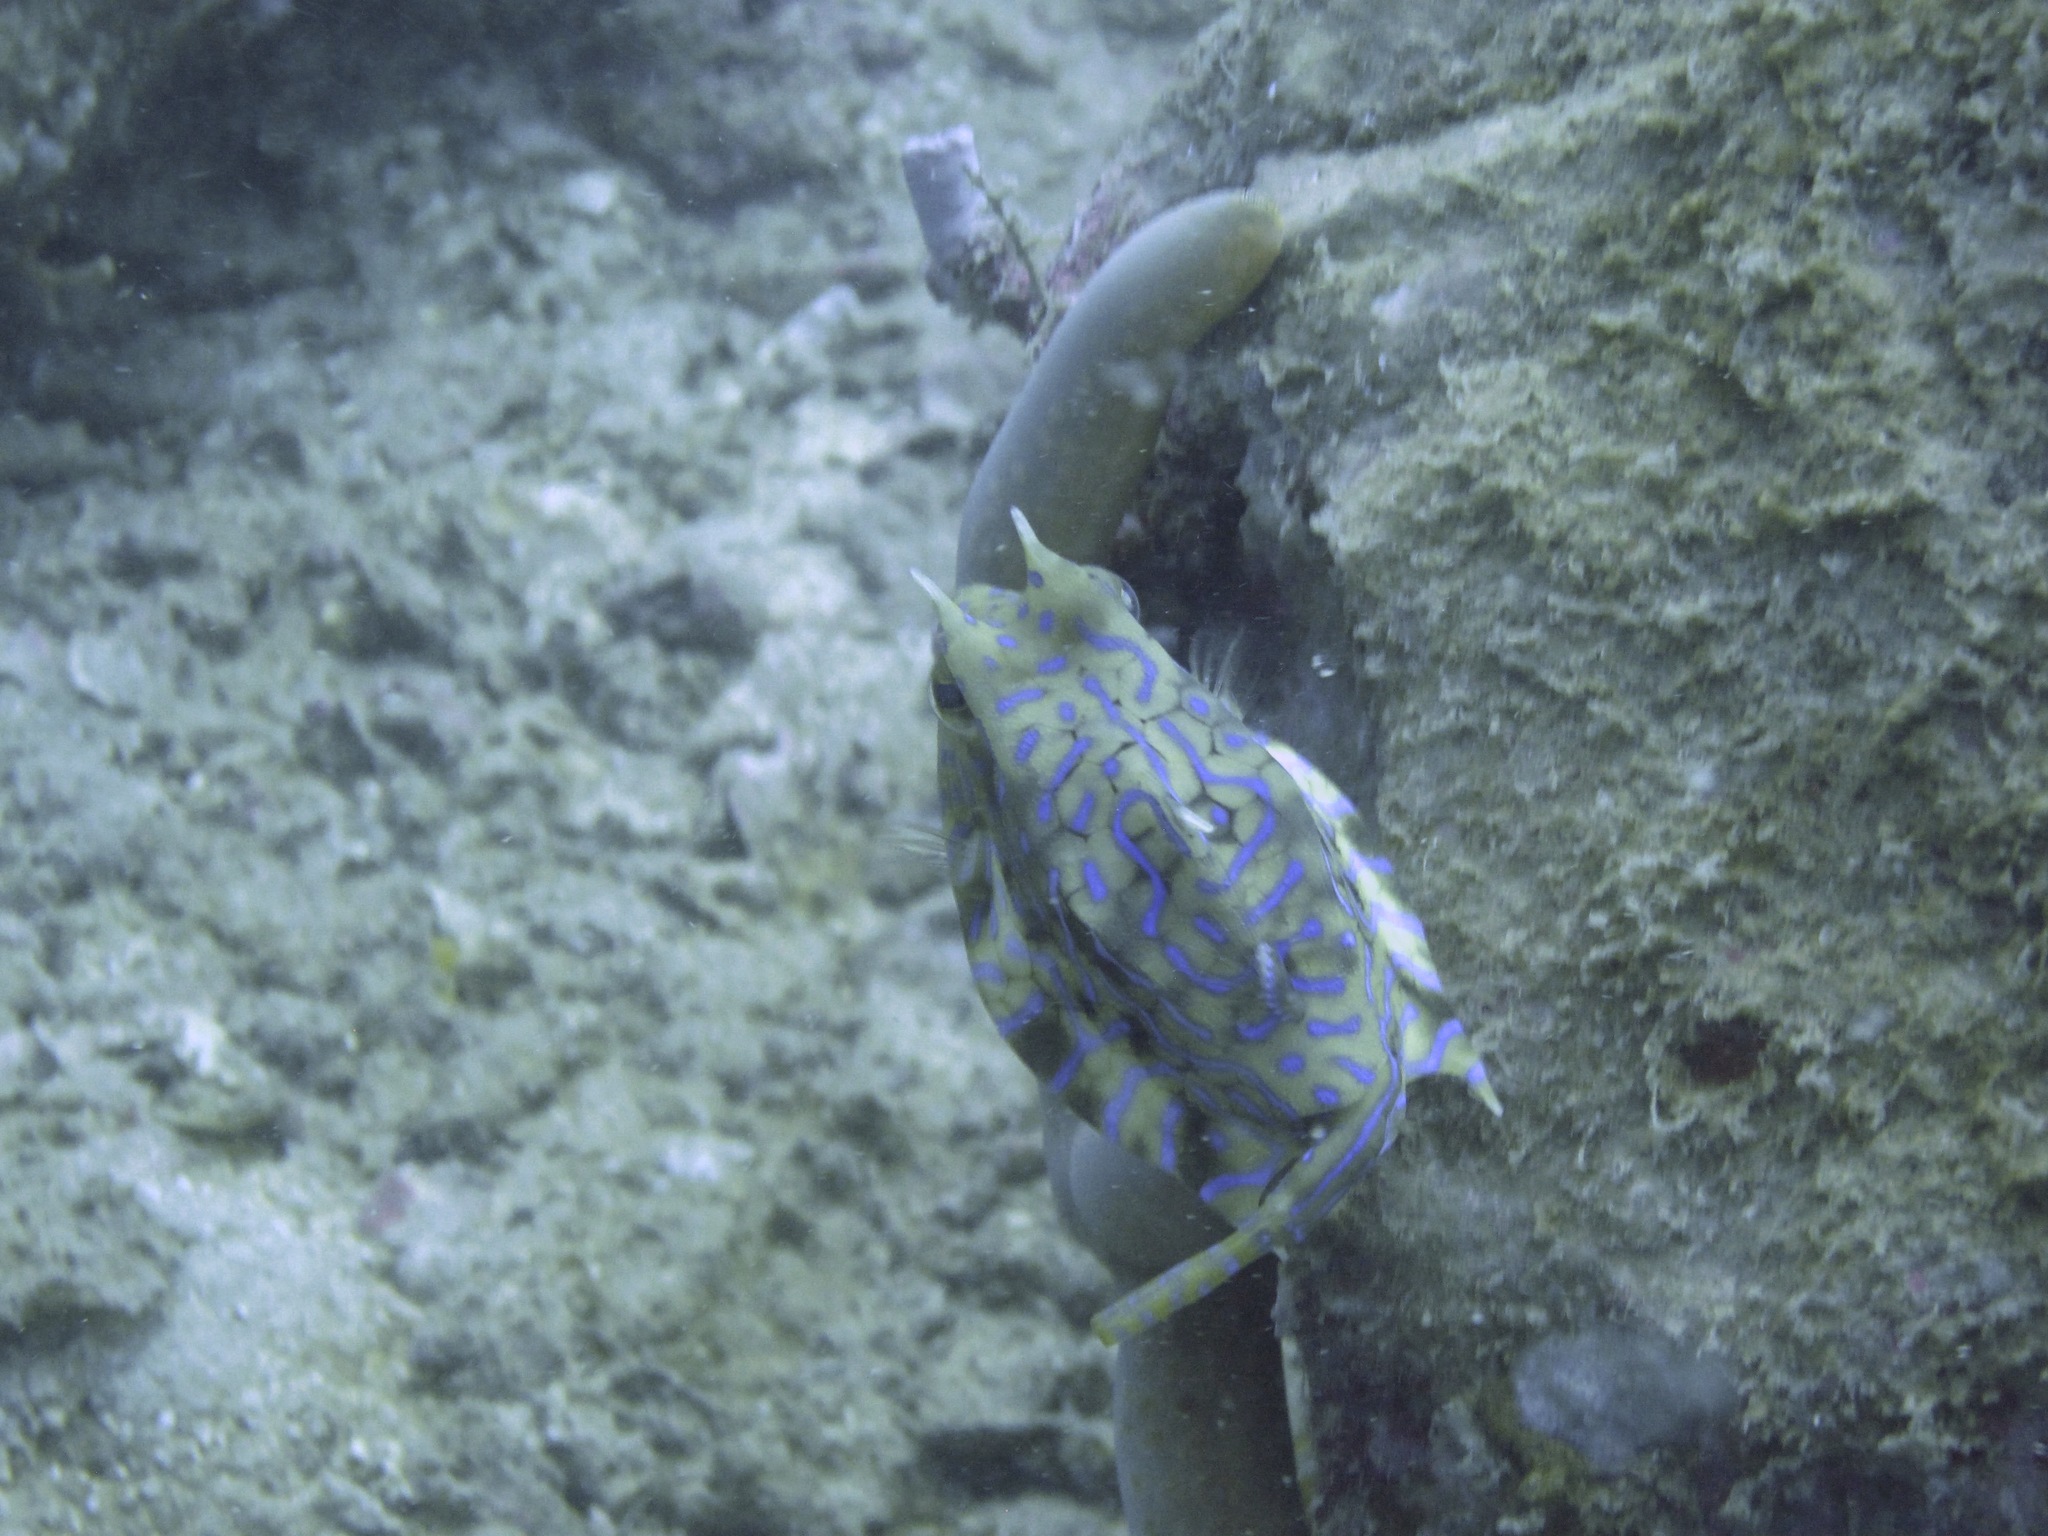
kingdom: Animalia
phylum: Chordata
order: Tetraodontiformes
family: Ostraciidae
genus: Lactoria
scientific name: Lactoria fornasini
